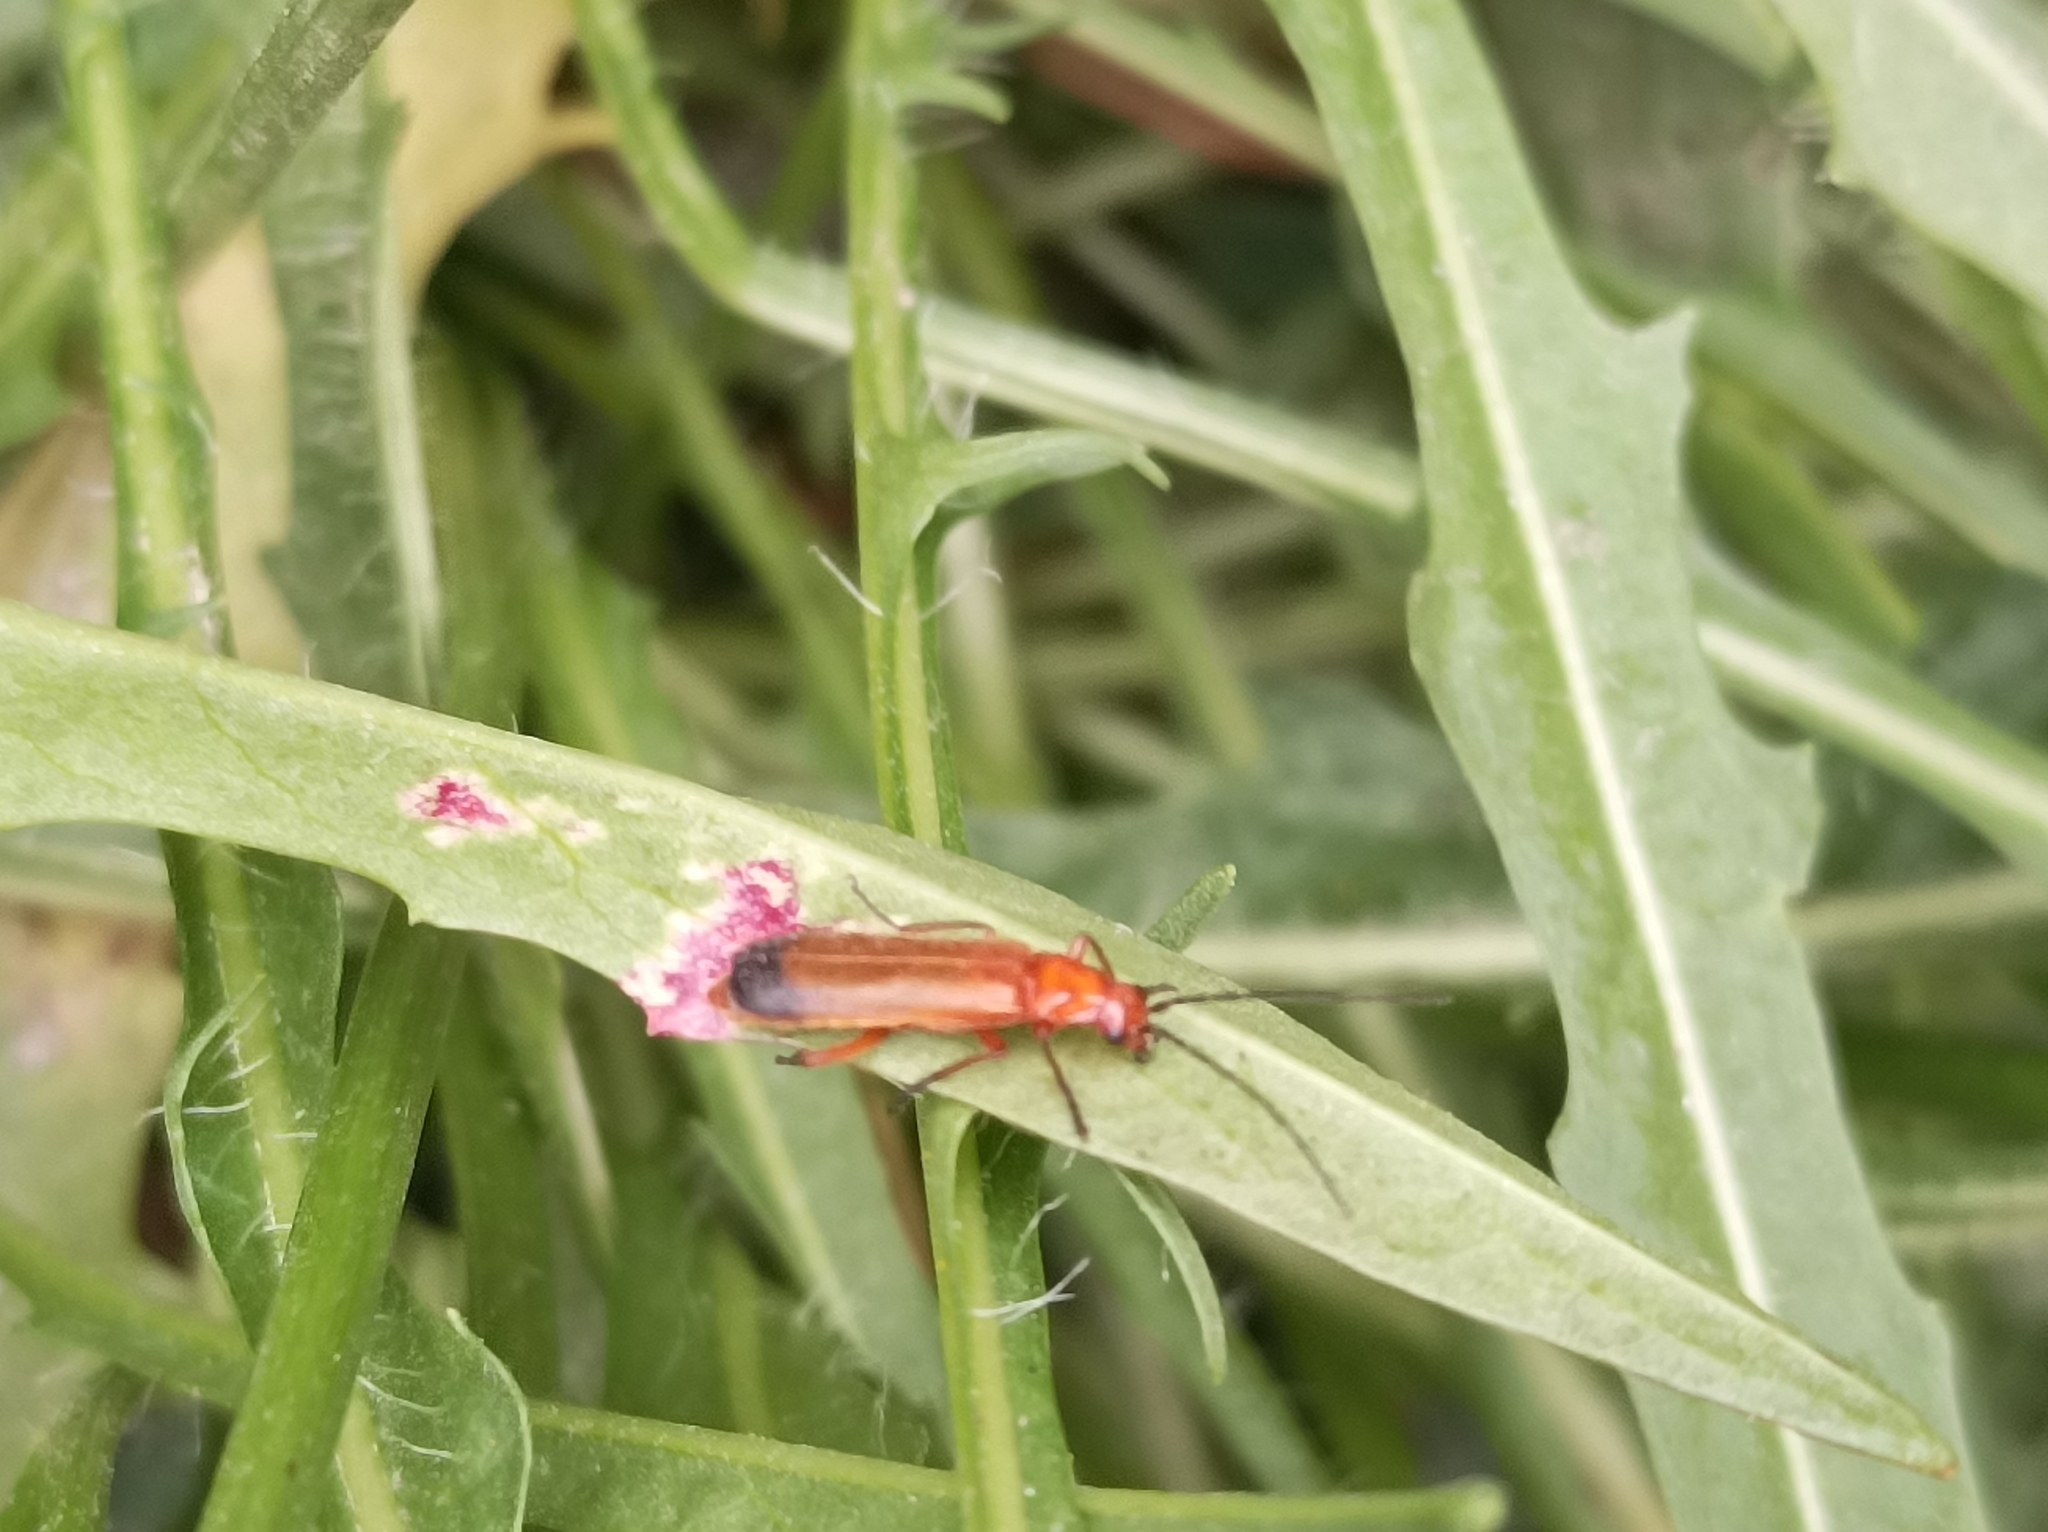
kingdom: Animalia
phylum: Arthropoda
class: Insecta
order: Coleoptera
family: Cantharidae
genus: Rhagonycha
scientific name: Rhagonycha fulva
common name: Common red soldier beetle
